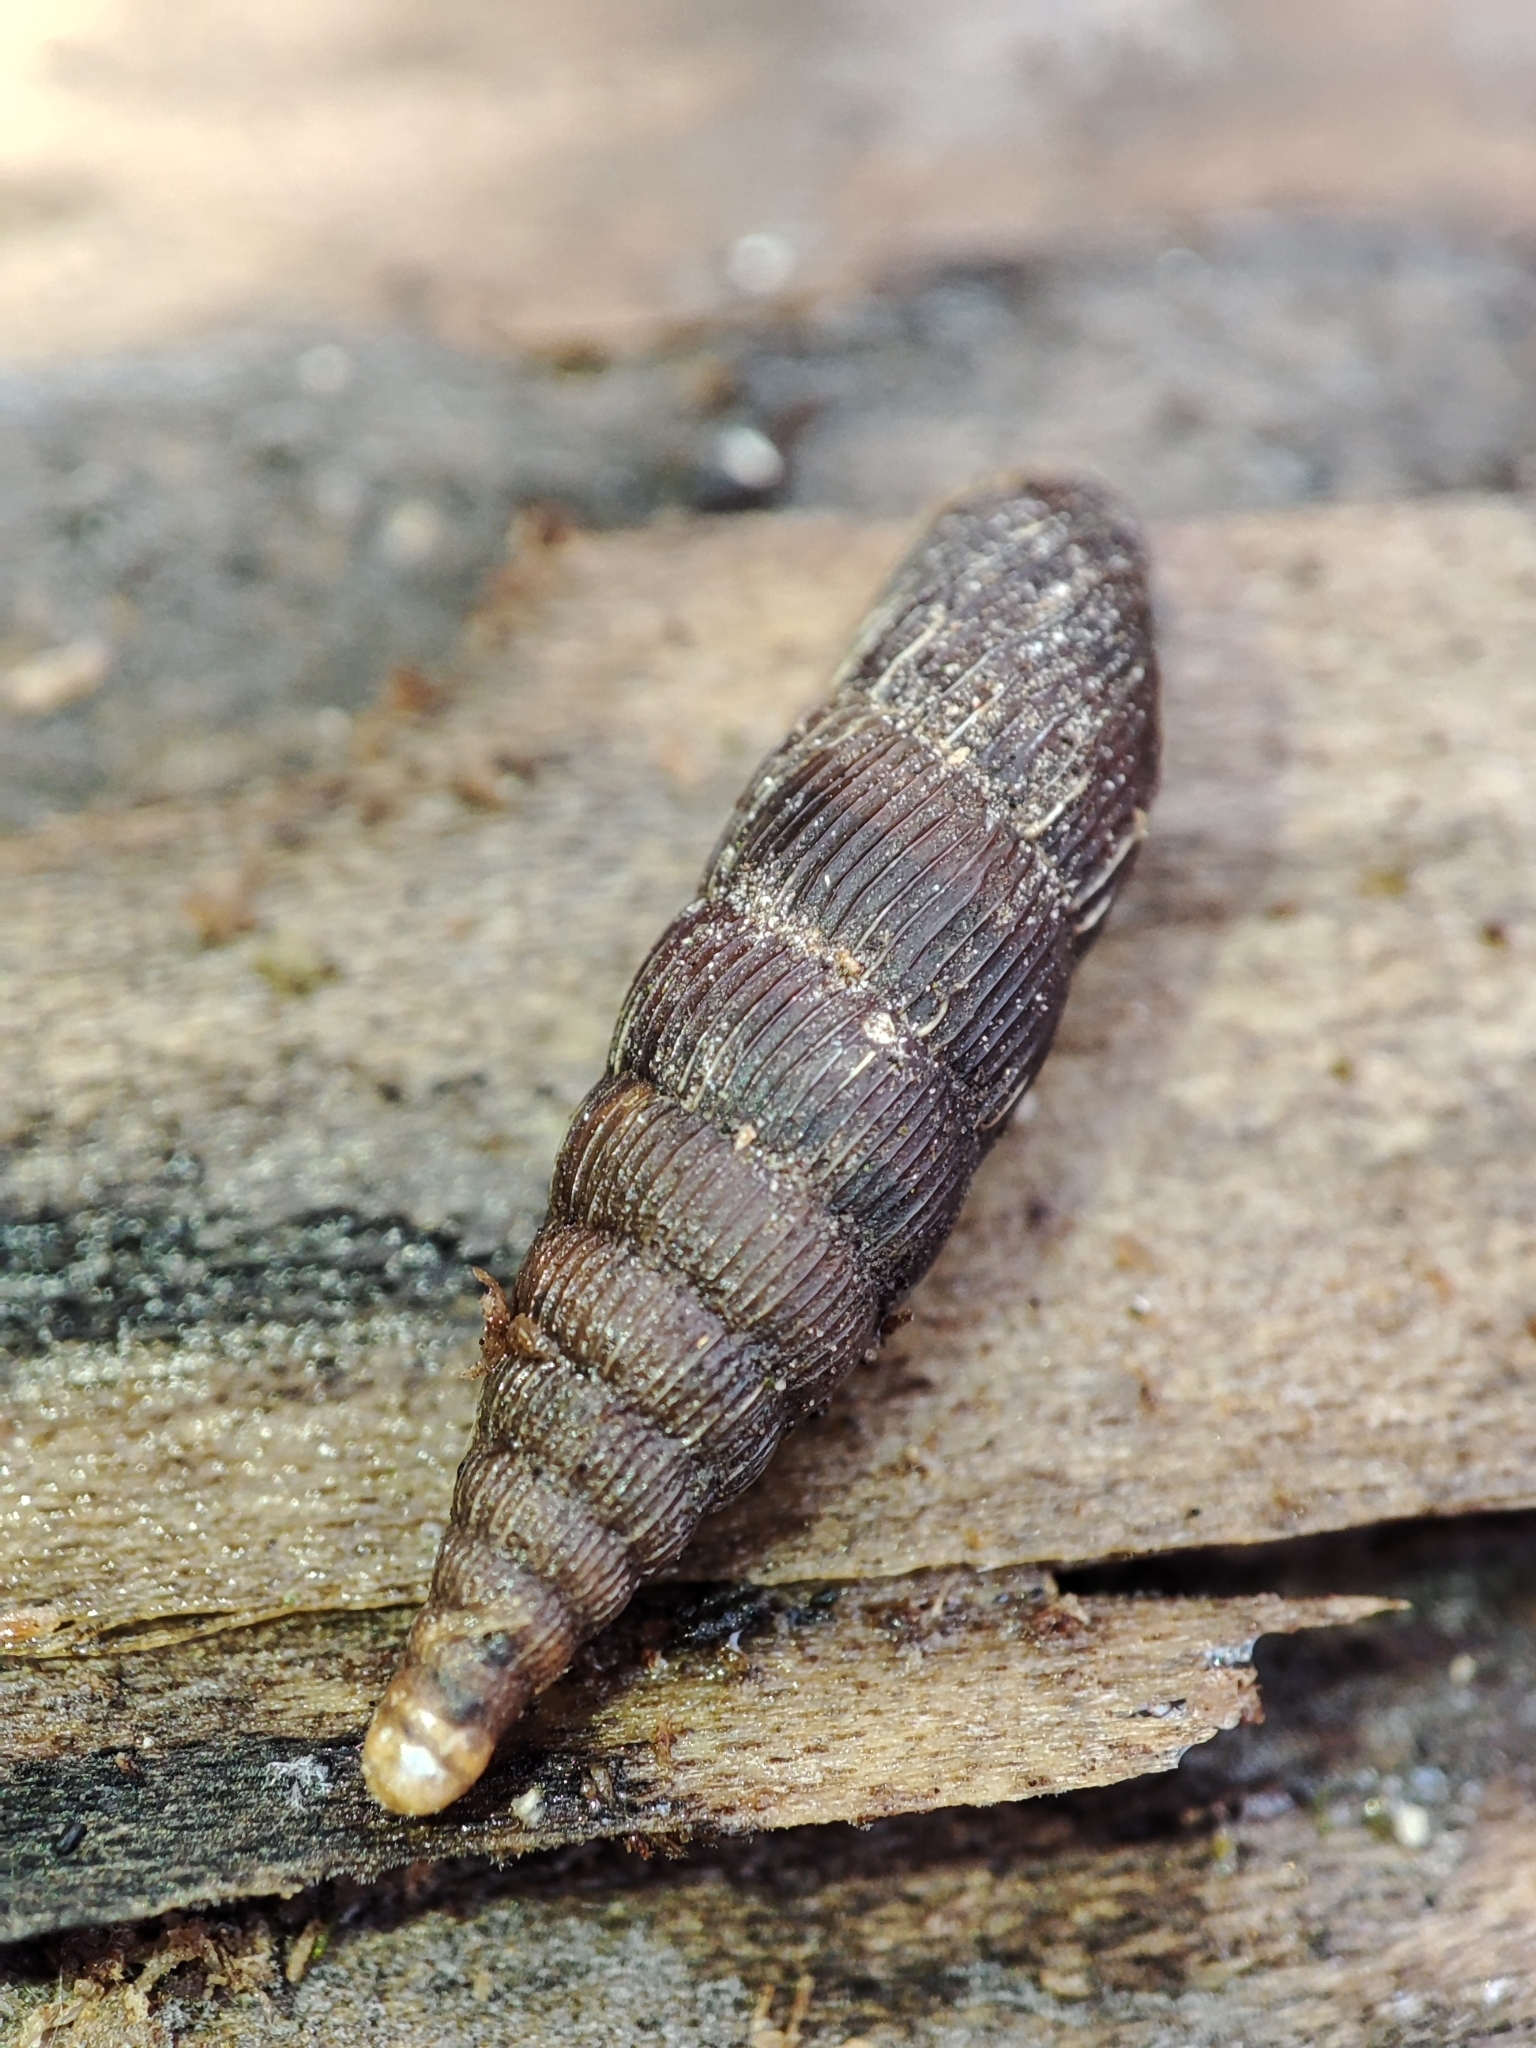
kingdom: Animalia
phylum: Mollusca
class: Gastropoda
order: Stylommatophora
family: Clausiliidae
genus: Laciniaria
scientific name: Laciniaria plicata
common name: Single-lipped door snail
